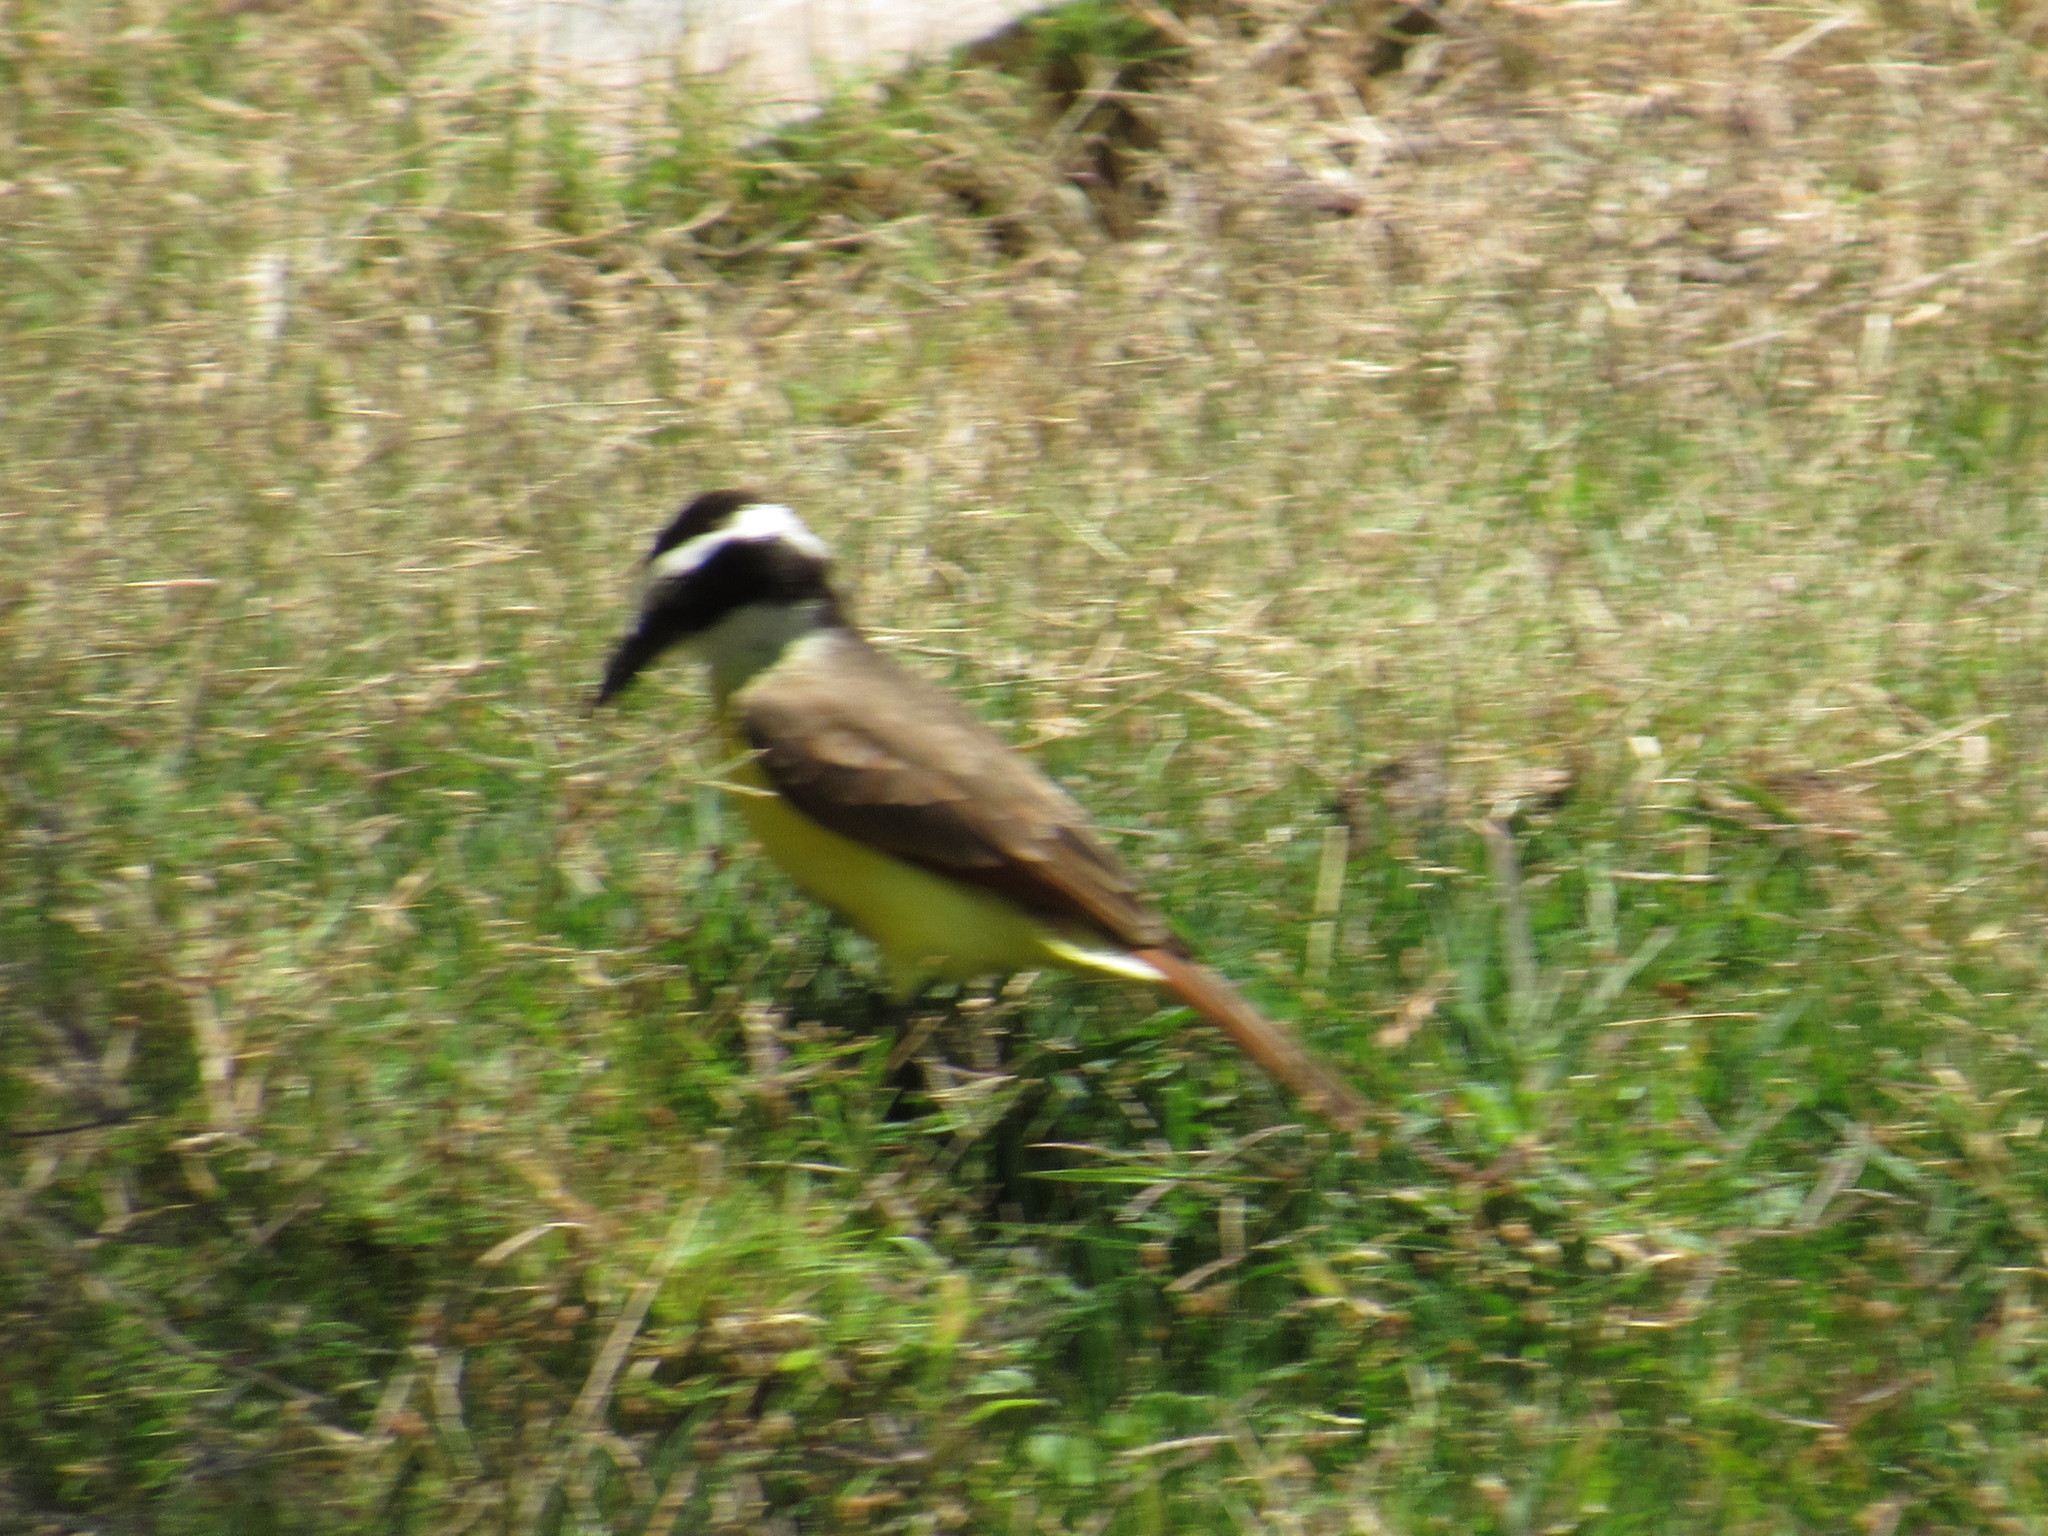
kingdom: Animalia
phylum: Chordata
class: Aves
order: Passeriformes
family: Tyrannidae
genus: Pitangus
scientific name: Pitangus sulphuratus
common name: Great kiskadee
